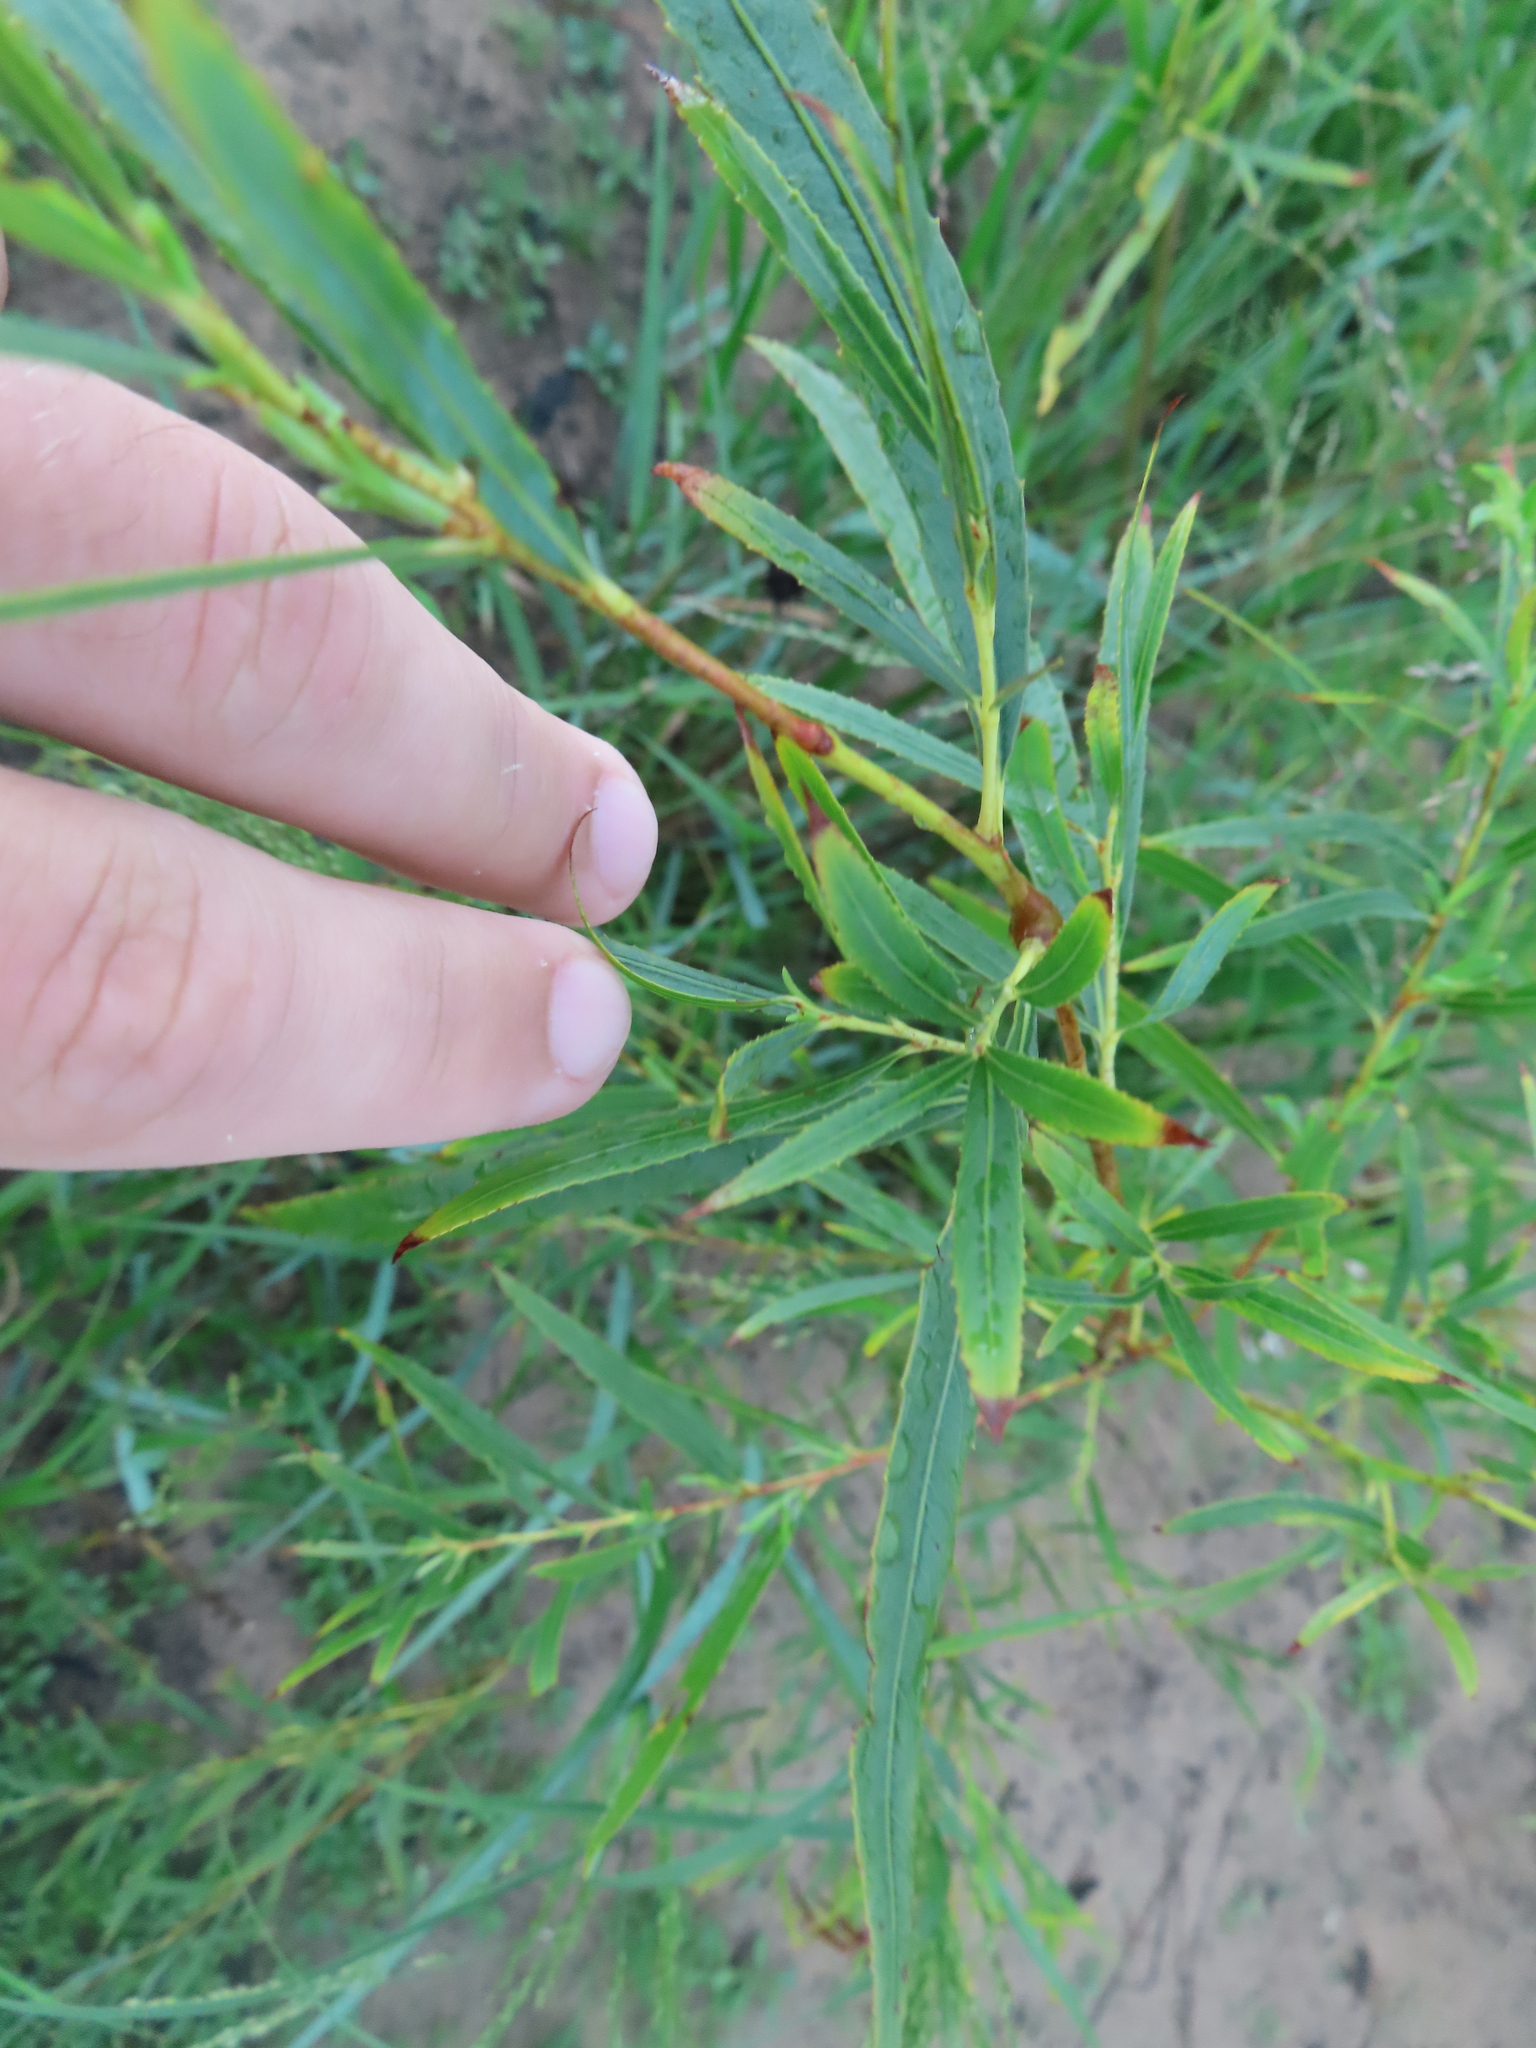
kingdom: Plantae
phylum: Tracheophyta
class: Magnoliopsida
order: Malpighiales
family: Salicaceae
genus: Salix
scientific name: Salix interior
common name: Sandbar willow
